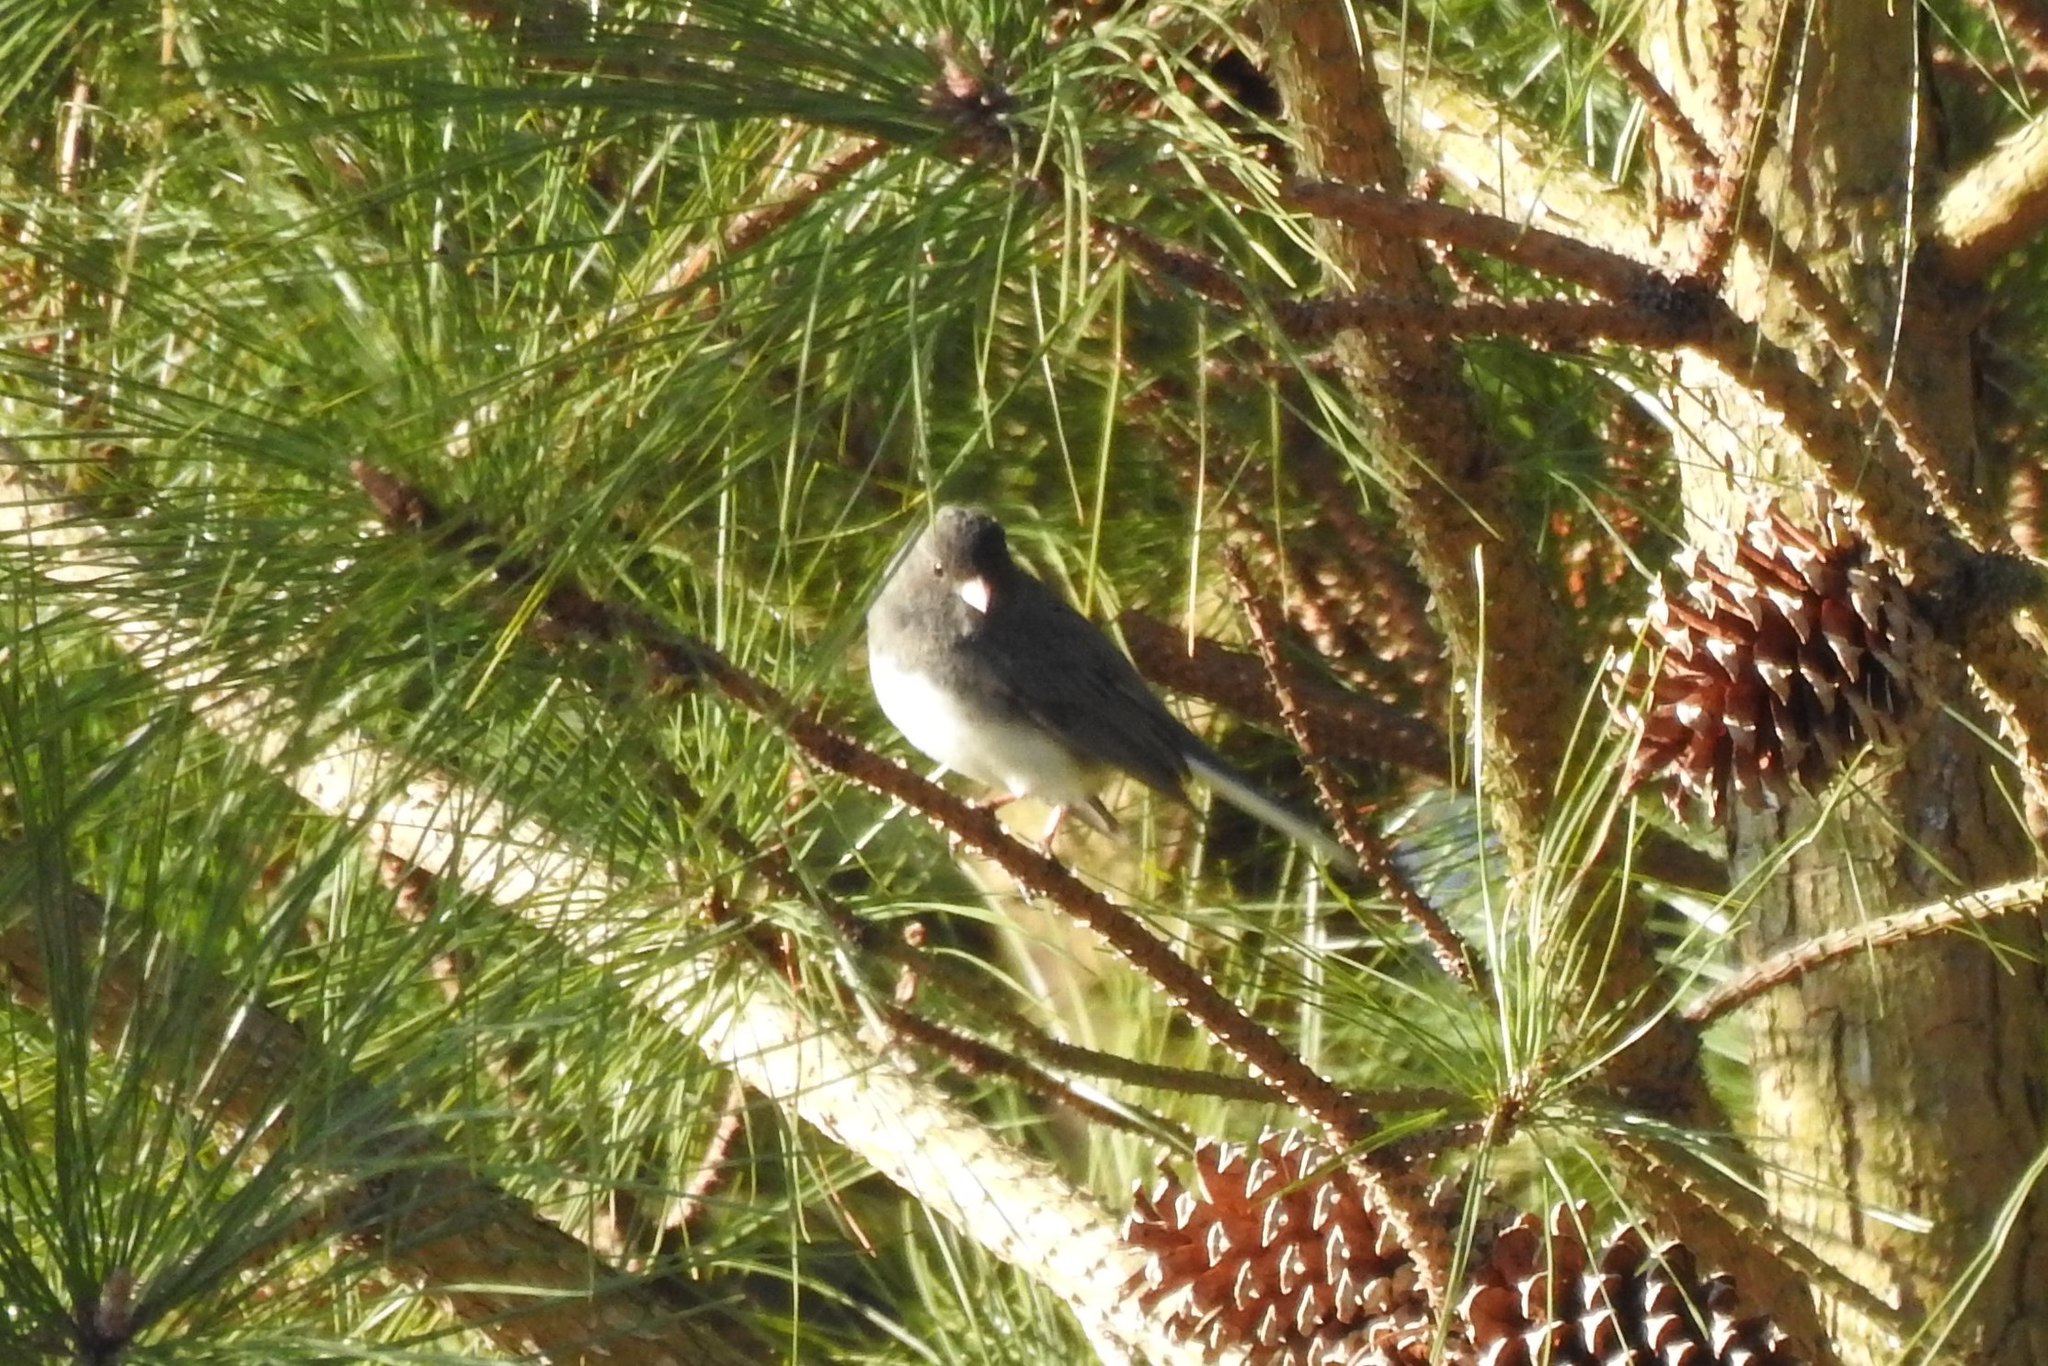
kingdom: Animalia
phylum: Chordata
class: Aves
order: Passeriformes
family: Passerellidae
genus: Junco
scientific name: Junco hyemalis
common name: Dark-eyed junco
